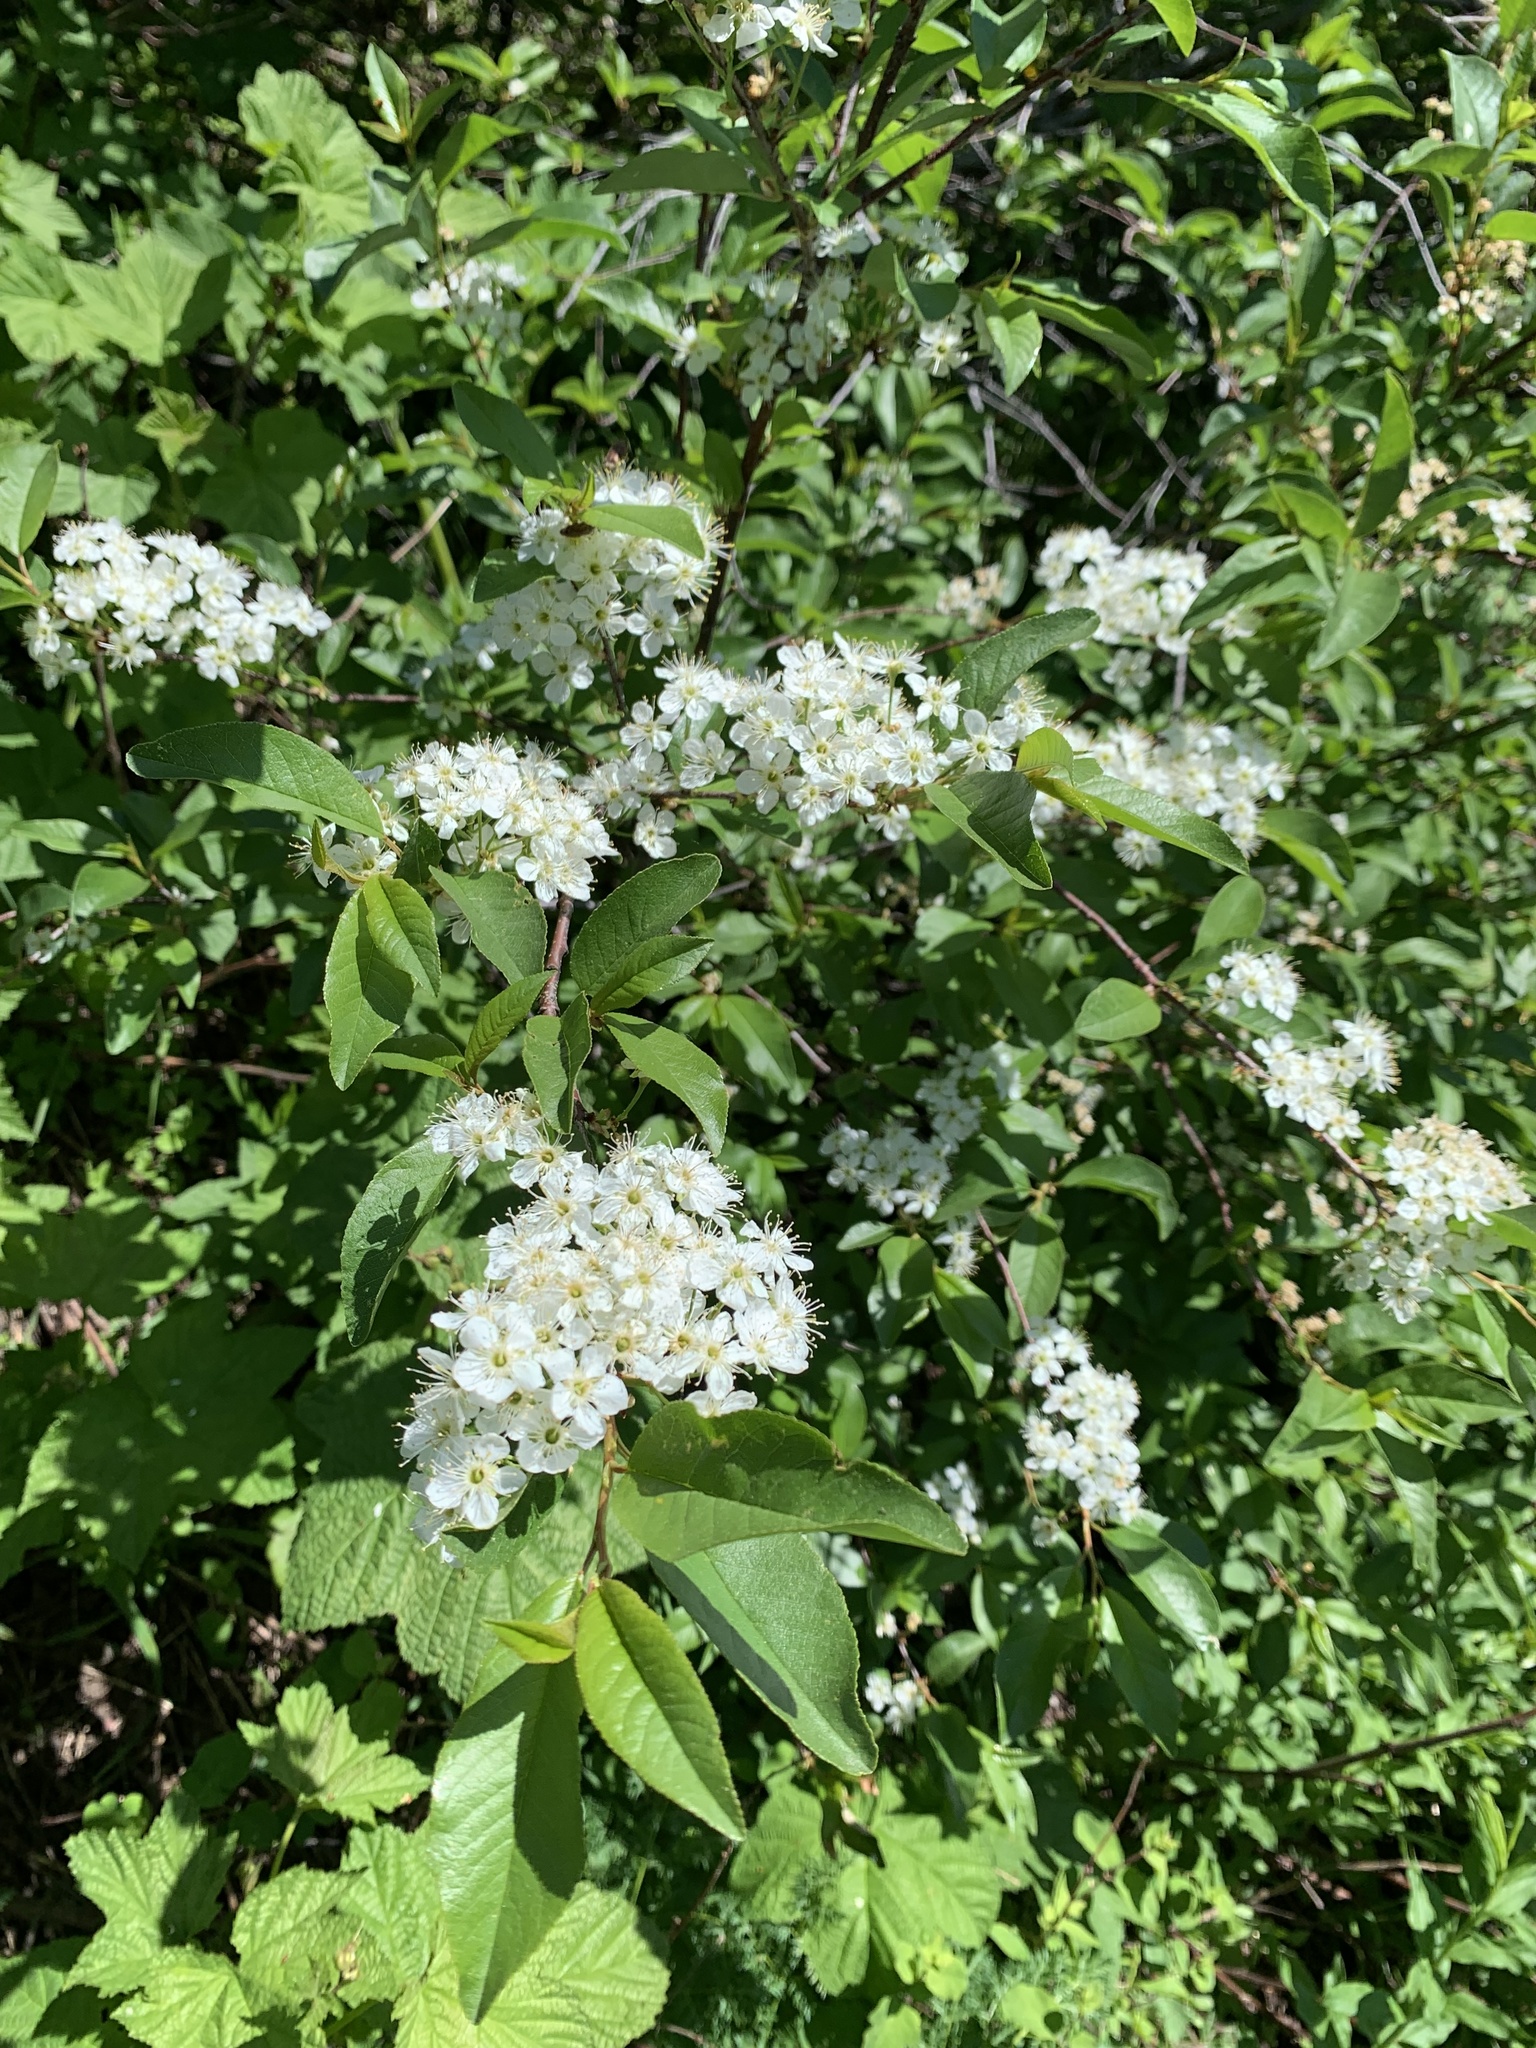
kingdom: Plantae
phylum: Tracheophyta
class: Magnoliopsida
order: Rosales
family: Rosaceae
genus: Prunus
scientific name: Prunus
